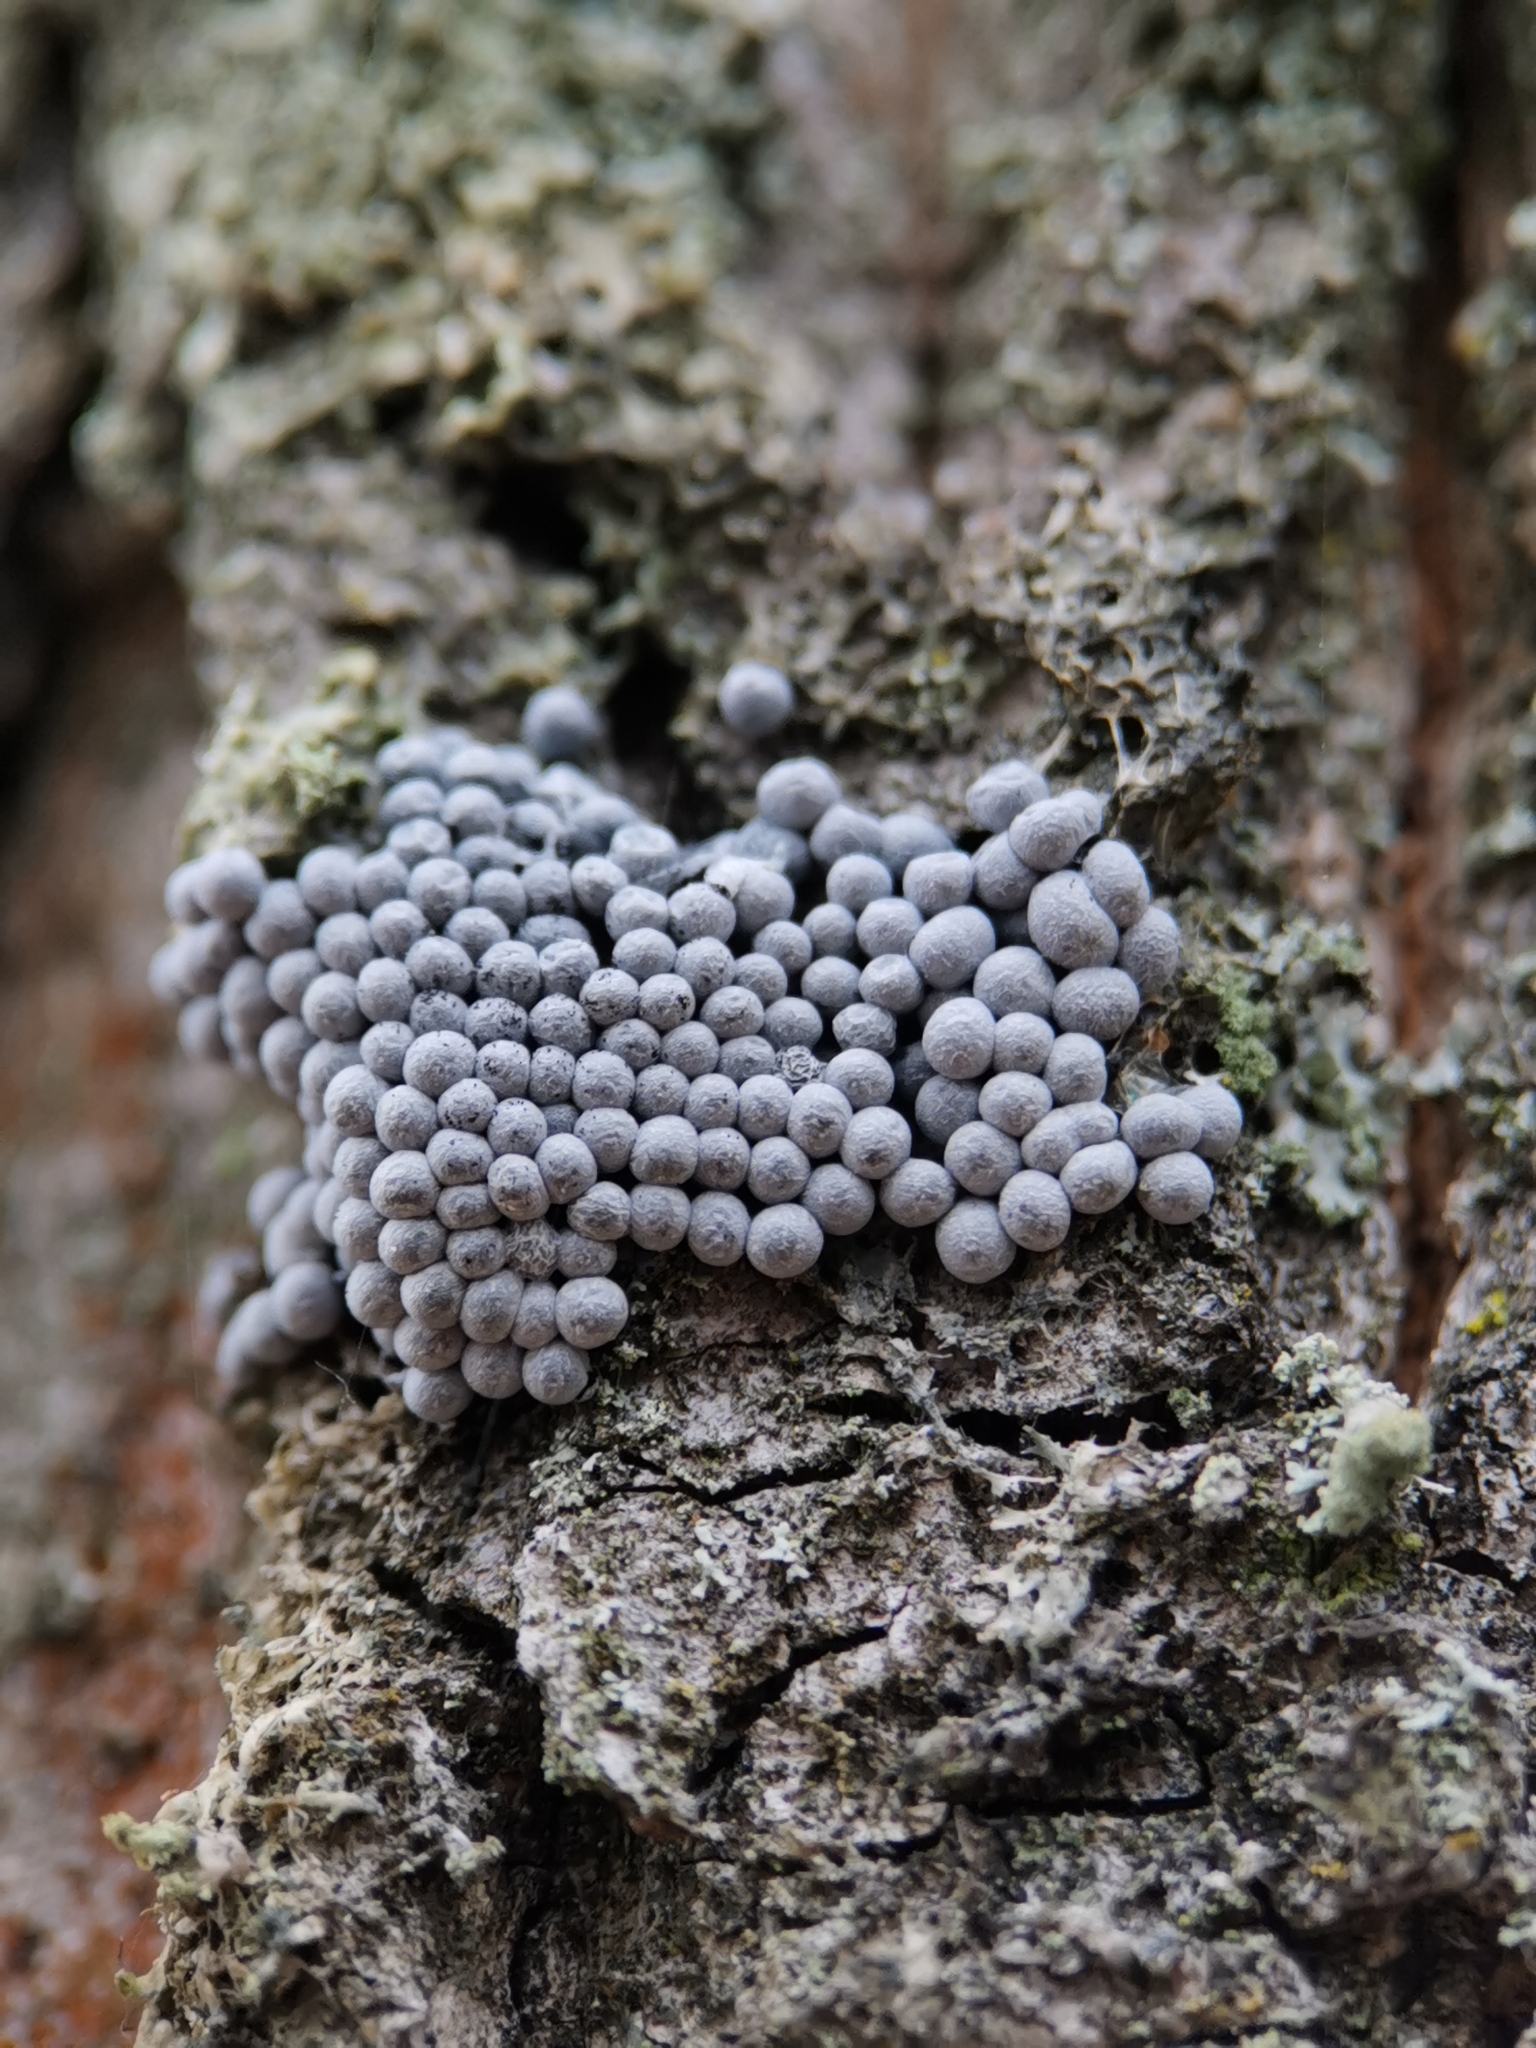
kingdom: Protozoa
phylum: Mycetozoa
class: Myxomycetes
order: Physarales
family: Physaraceae
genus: Badhamia
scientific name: Badhamia utricularis
